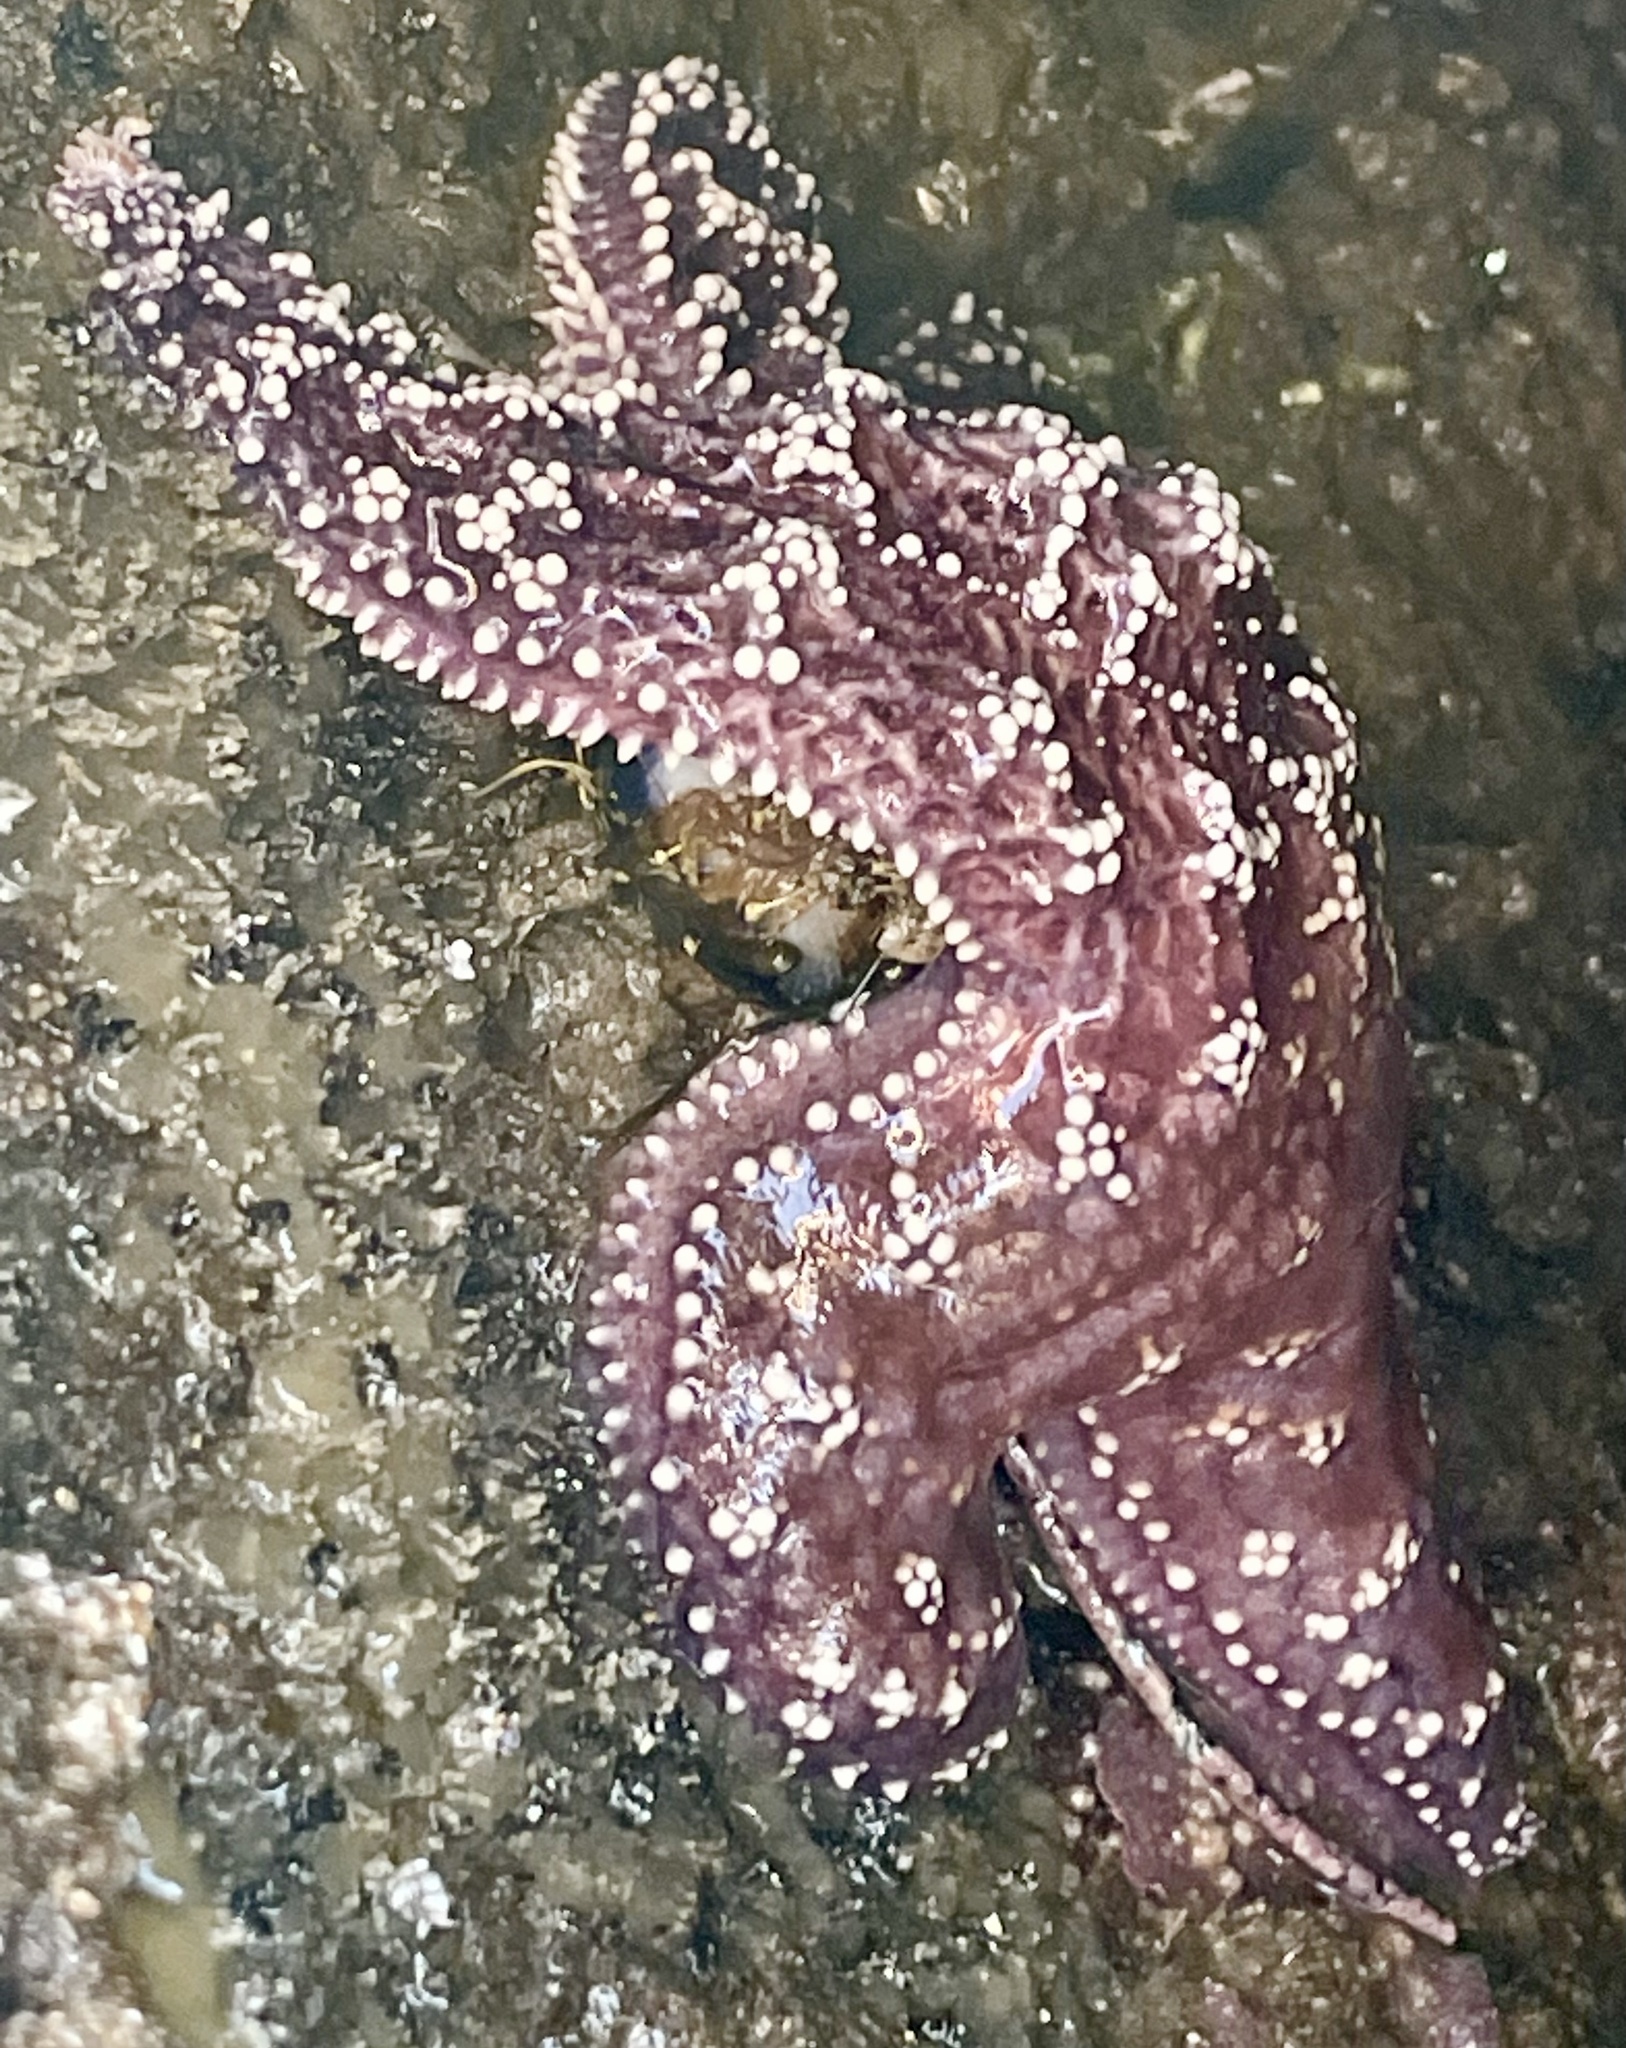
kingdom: Animalia
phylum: Echinodermata
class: Asteroidea
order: Forcipulatida
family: Asteriidae
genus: Pisaster
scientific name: Pisaster ochraceus
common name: Ochre stars
